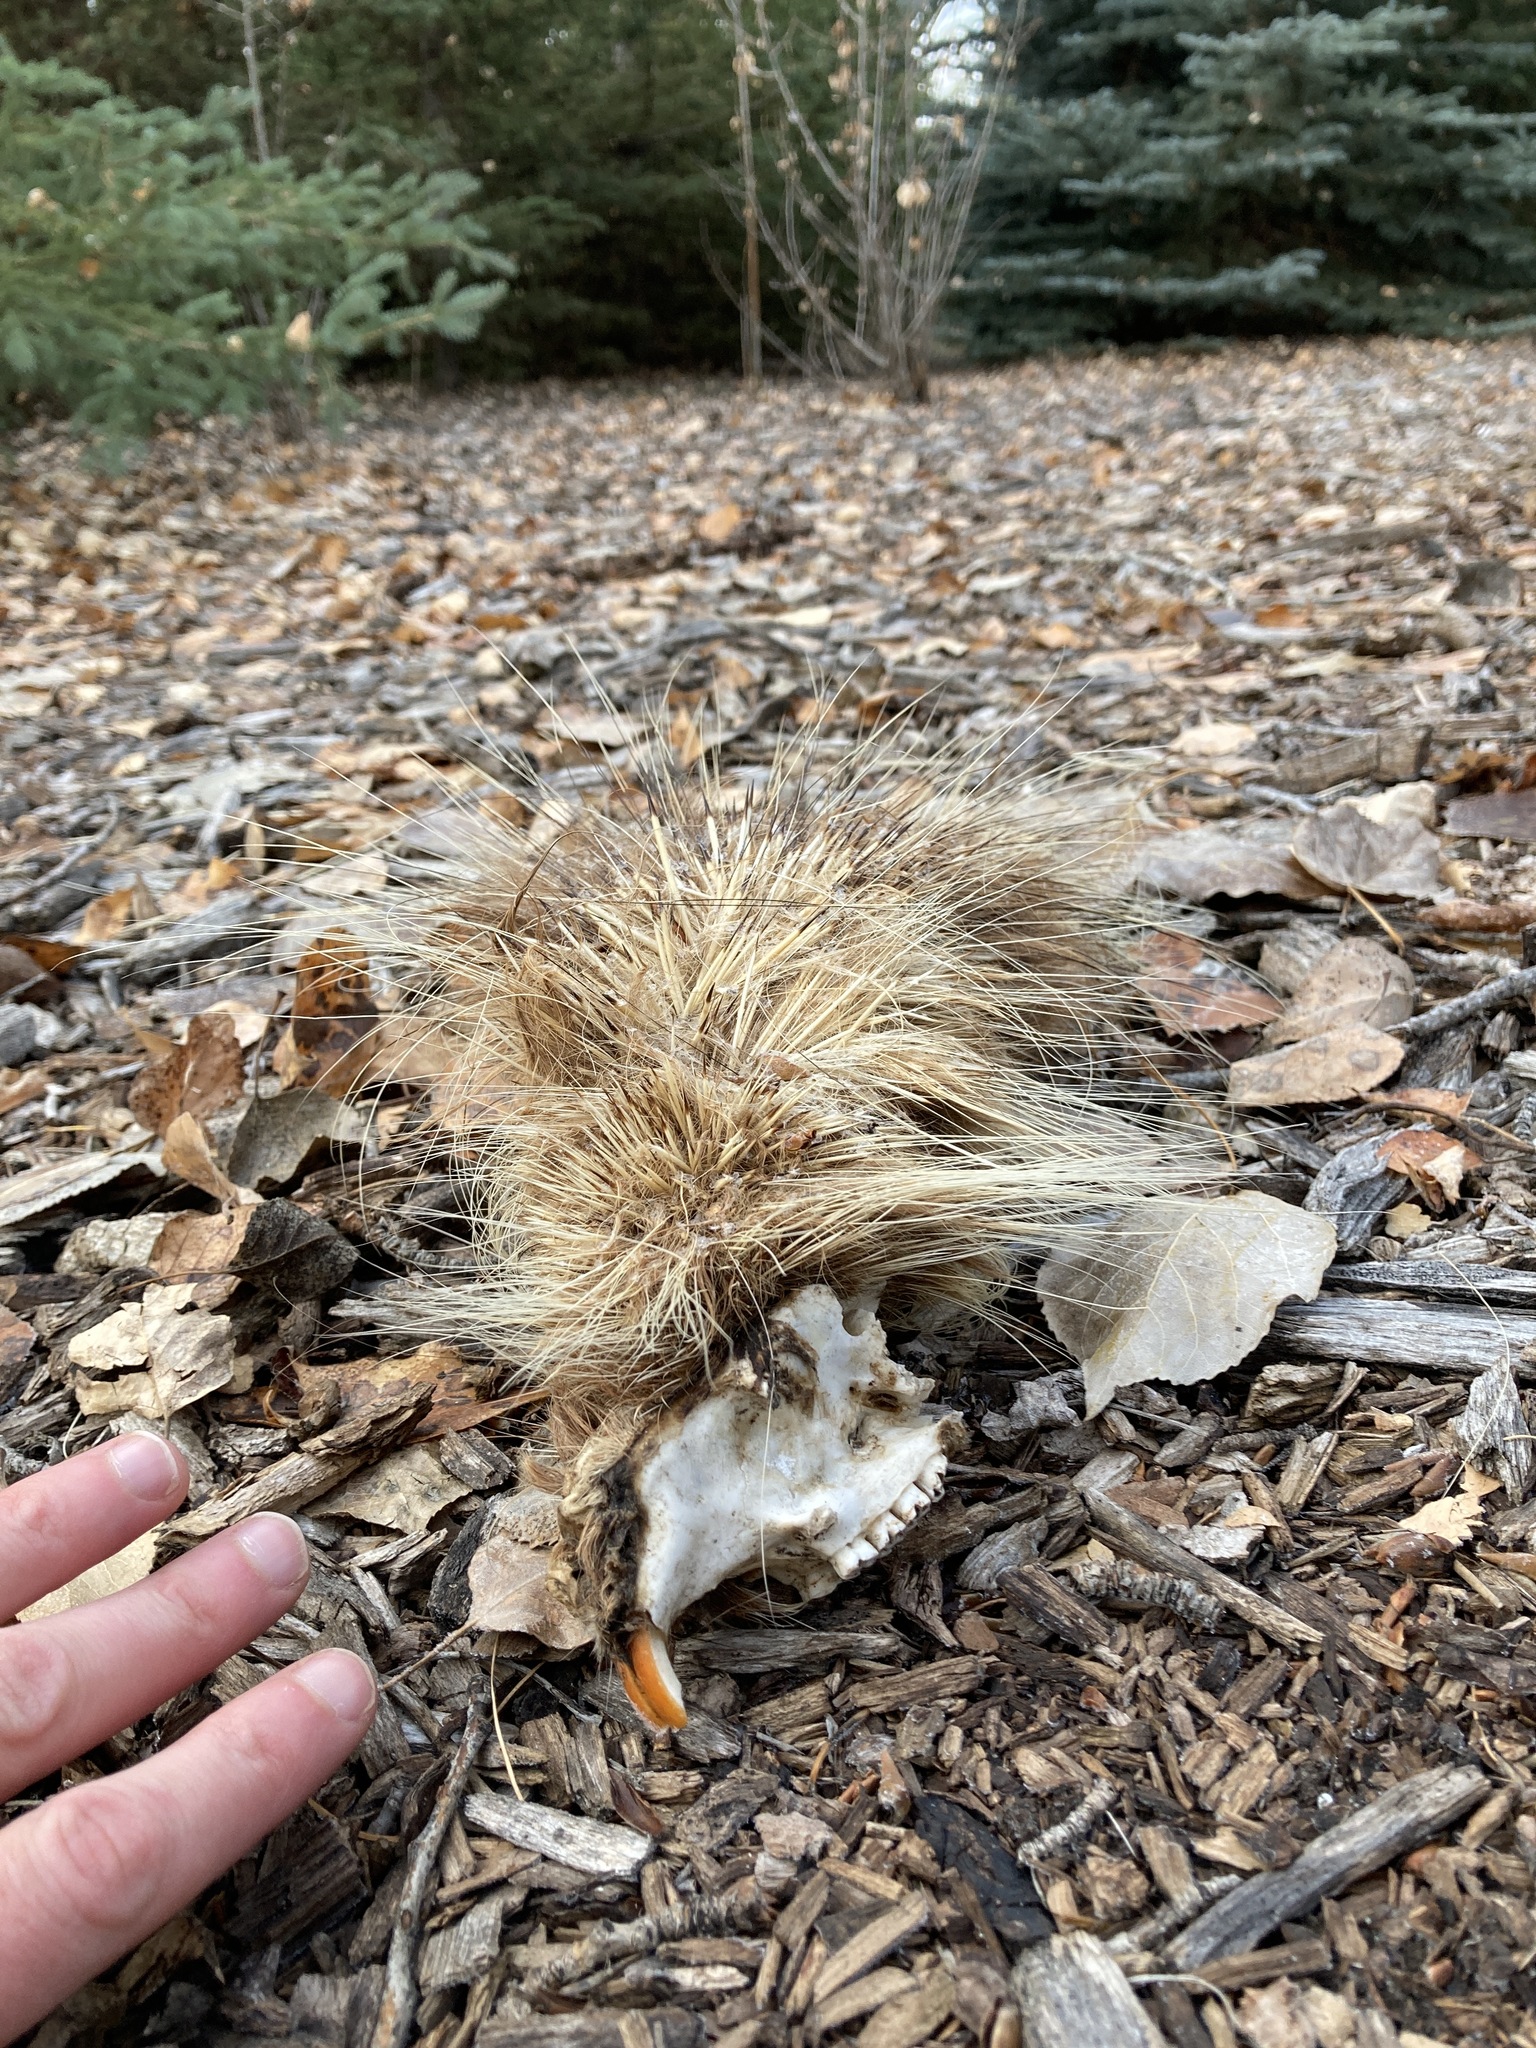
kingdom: Animalia
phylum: Chordata
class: Mammalia
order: Rodentia
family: Erethizontidae
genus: Erethizon
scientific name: Erethizon dorsatus
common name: North american porcupine
